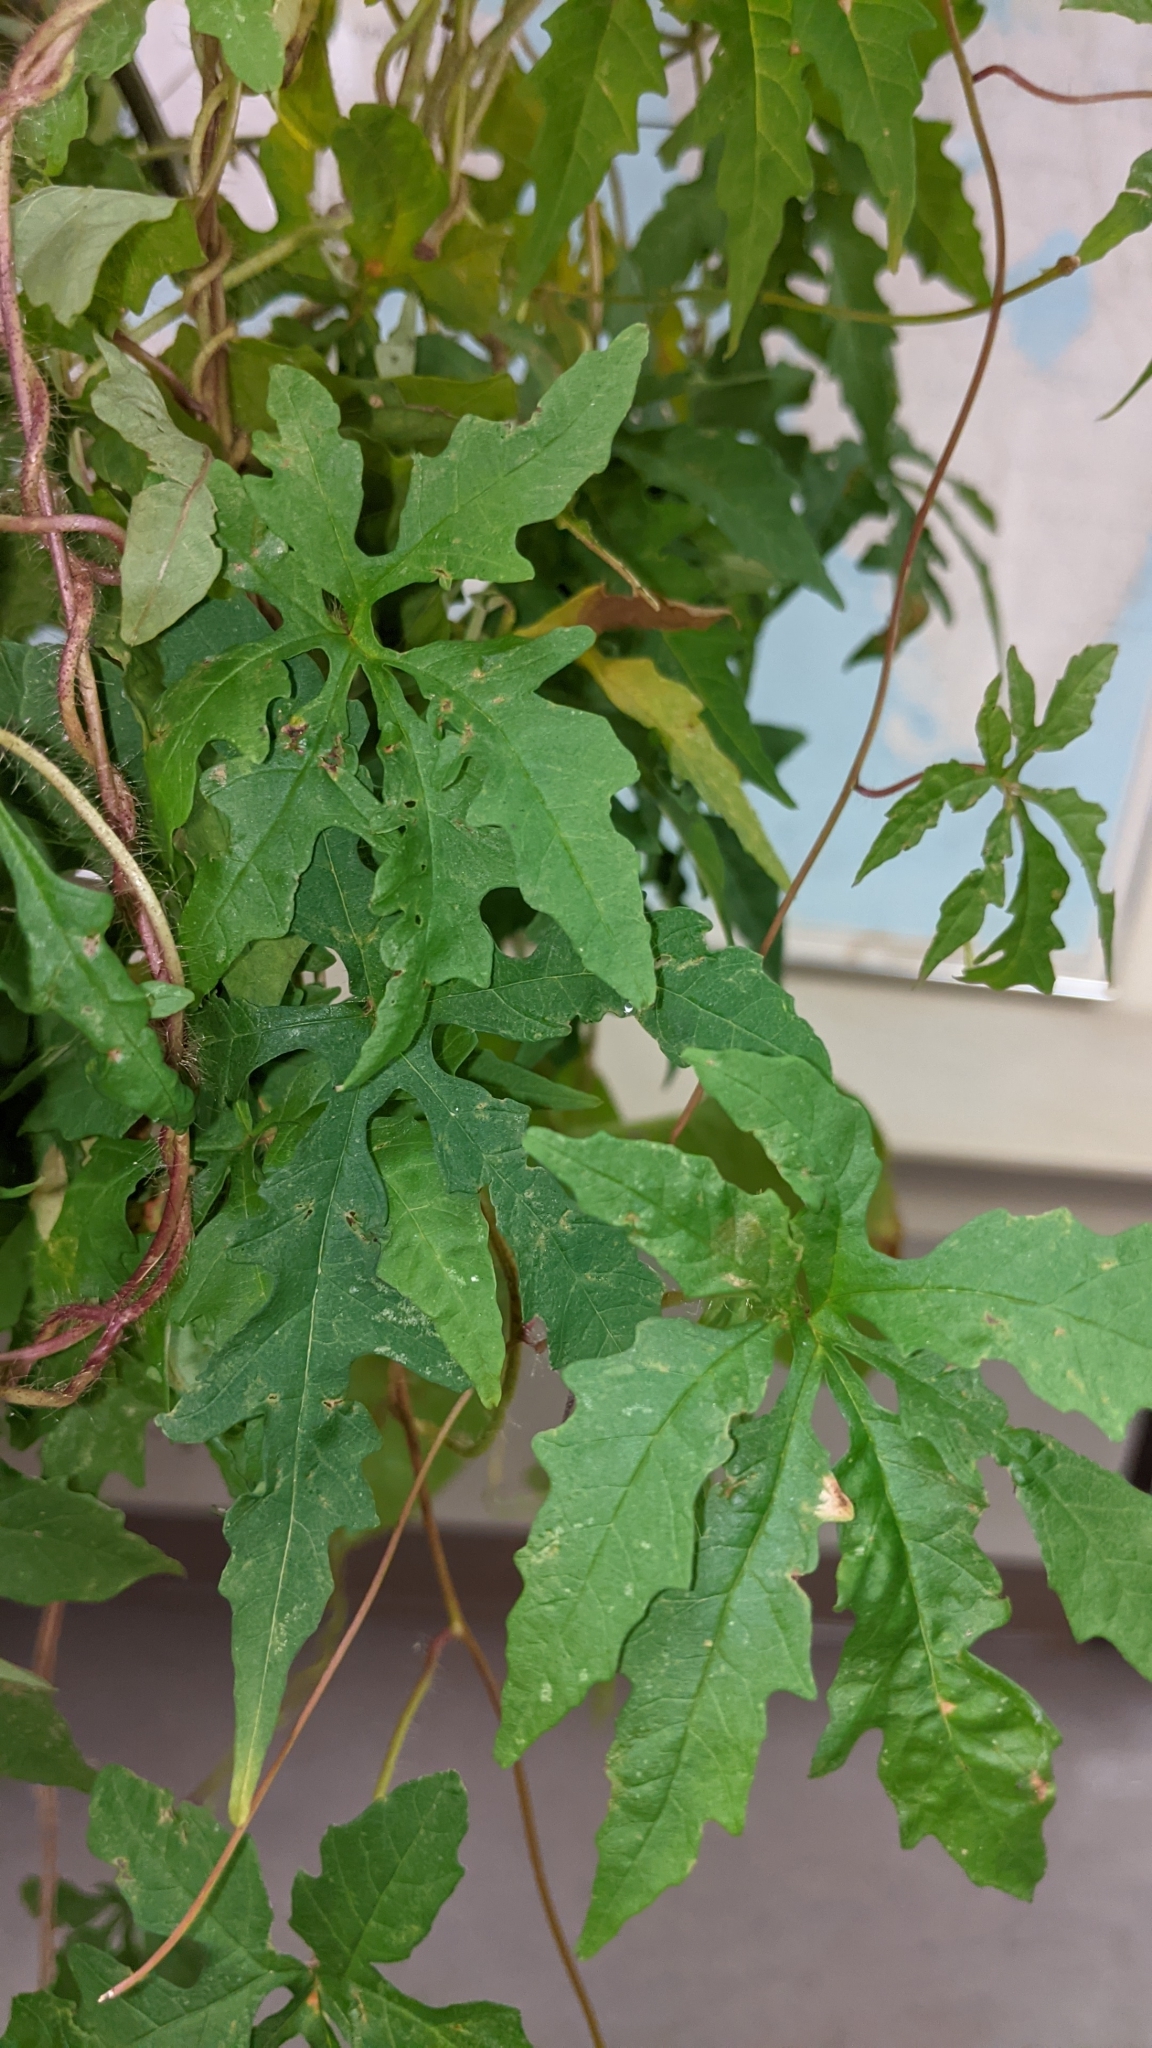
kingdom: Plantae
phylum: Tracheophyta
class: Magnoliopsida
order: Solanales
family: Convolvulaceae
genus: Distimake
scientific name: Distimake dissectus
